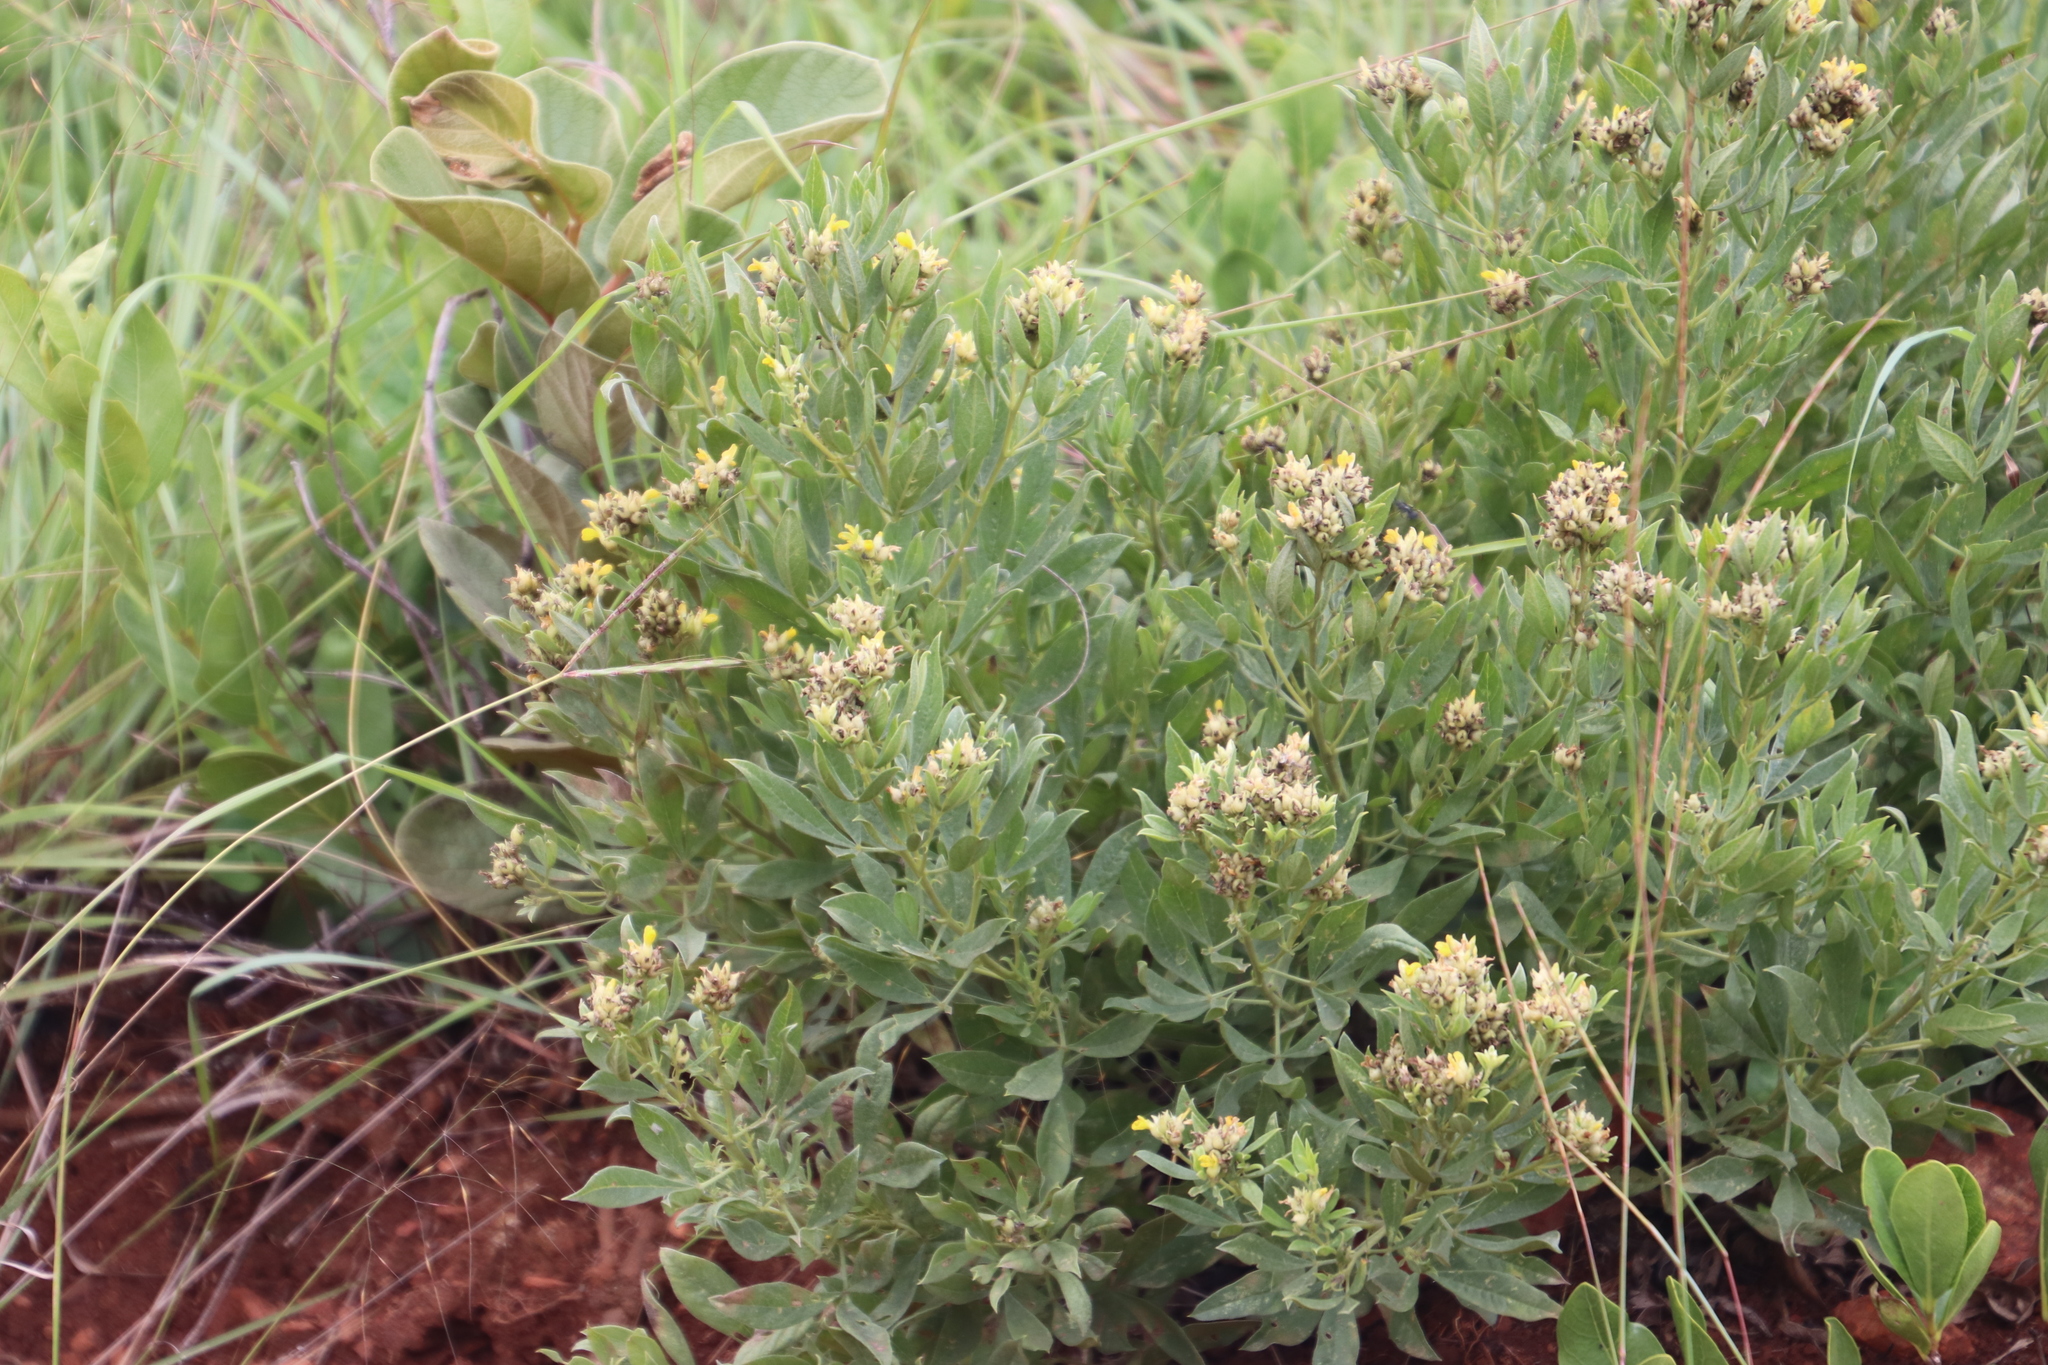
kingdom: Plantae
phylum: Tracheophyta
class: Magnoliopsida
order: Fabales
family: Fabaceae
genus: Pearsonia
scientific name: Pearsonia cajanifolia
